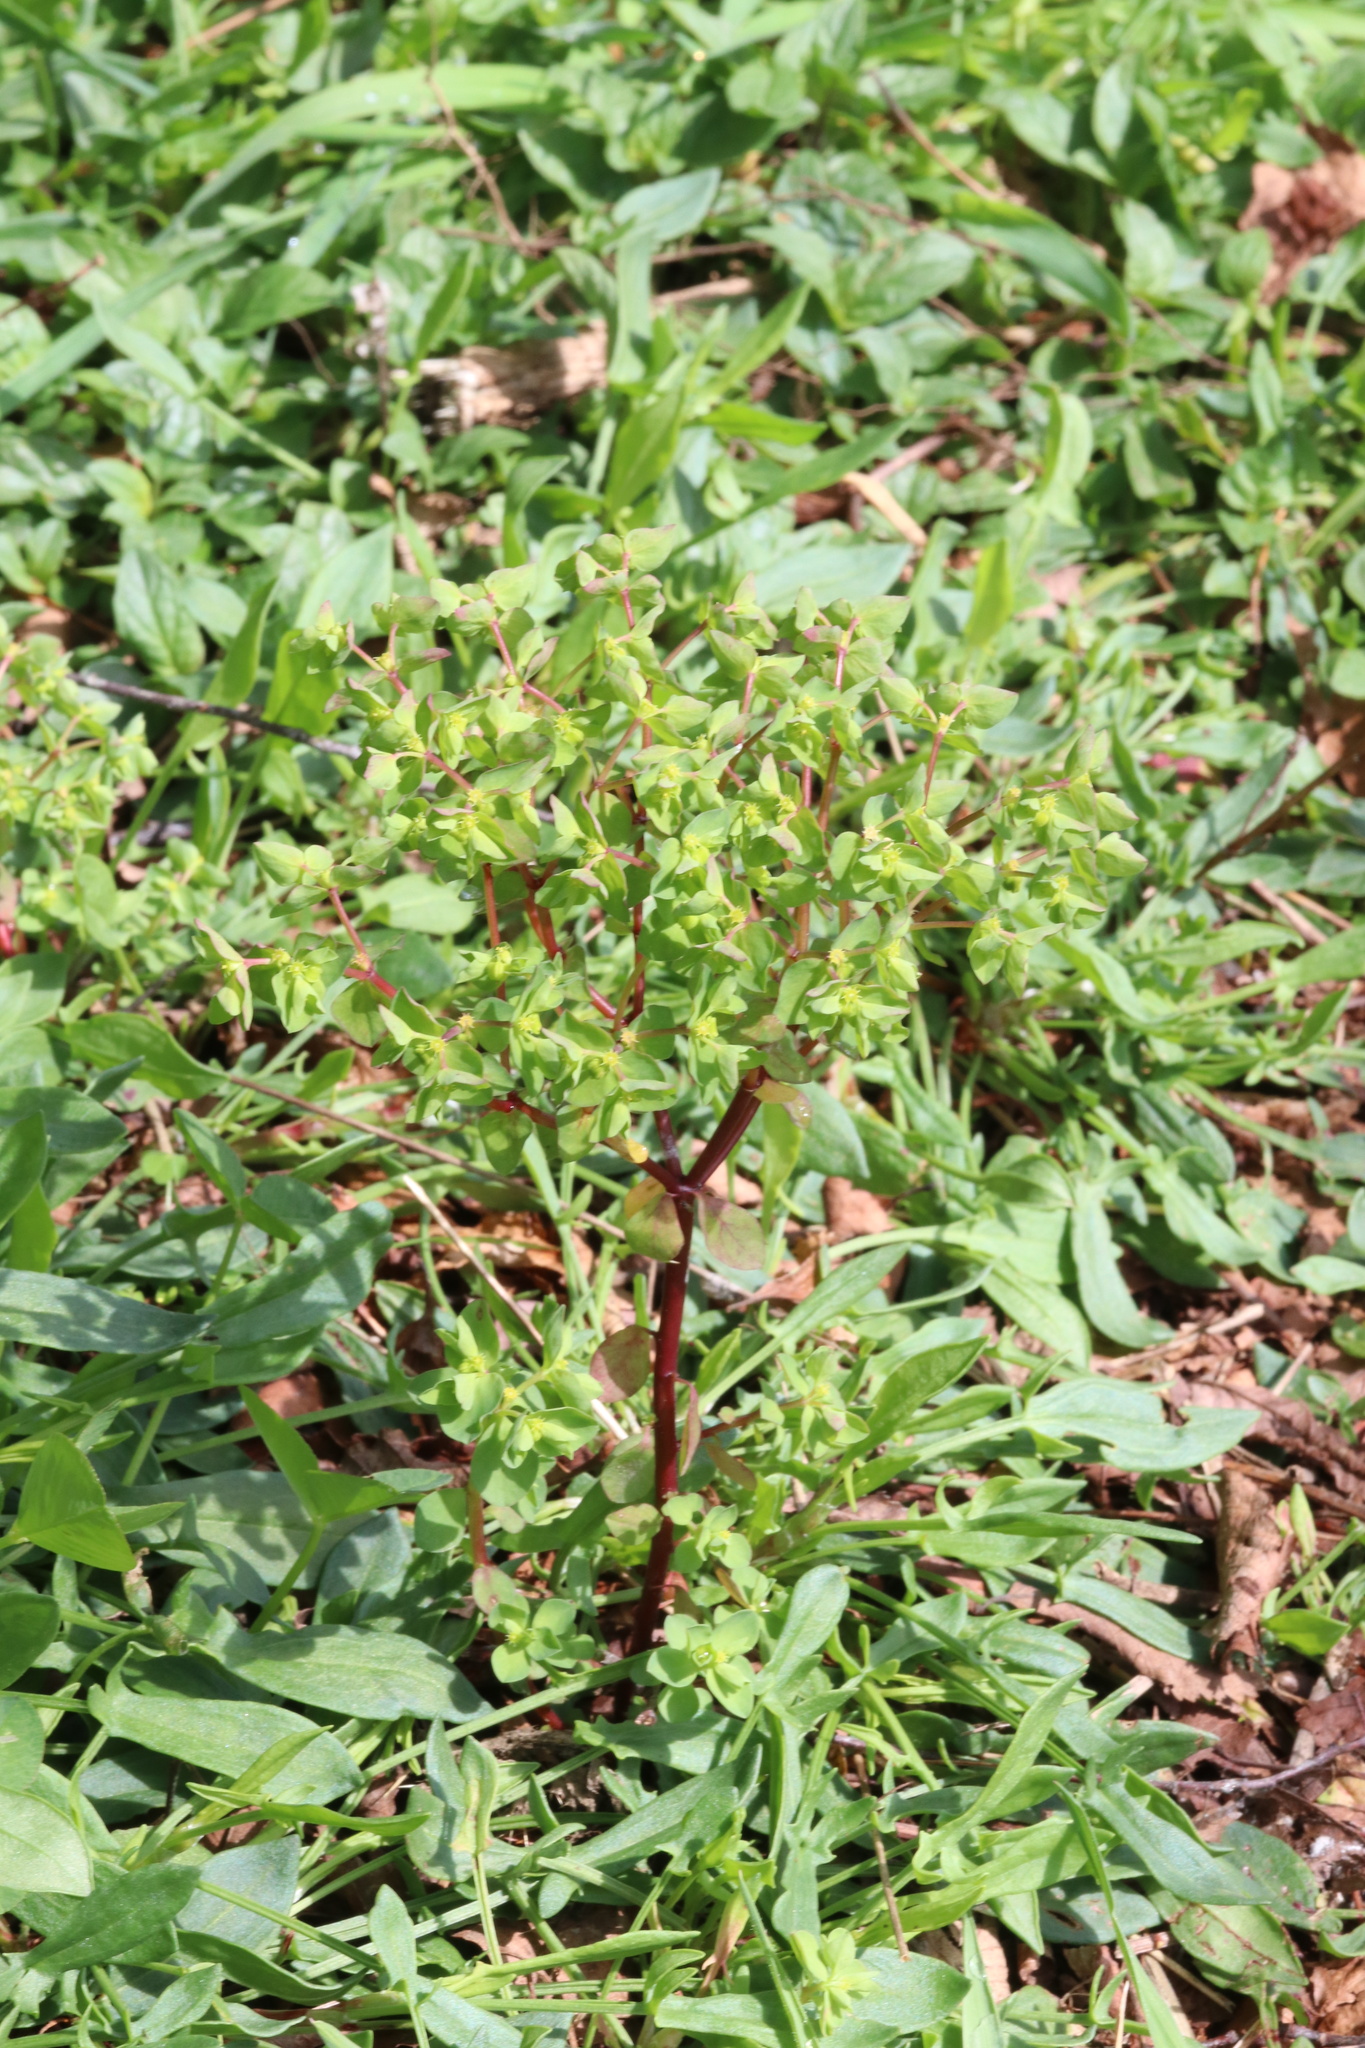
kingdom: Plantae
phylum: Tracheophyta
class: Magnoliopsida
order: Malpighiales
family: Euphorbiaceae
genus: Euphorbia
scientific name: Euphorbia peplus
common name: Petty spurge
